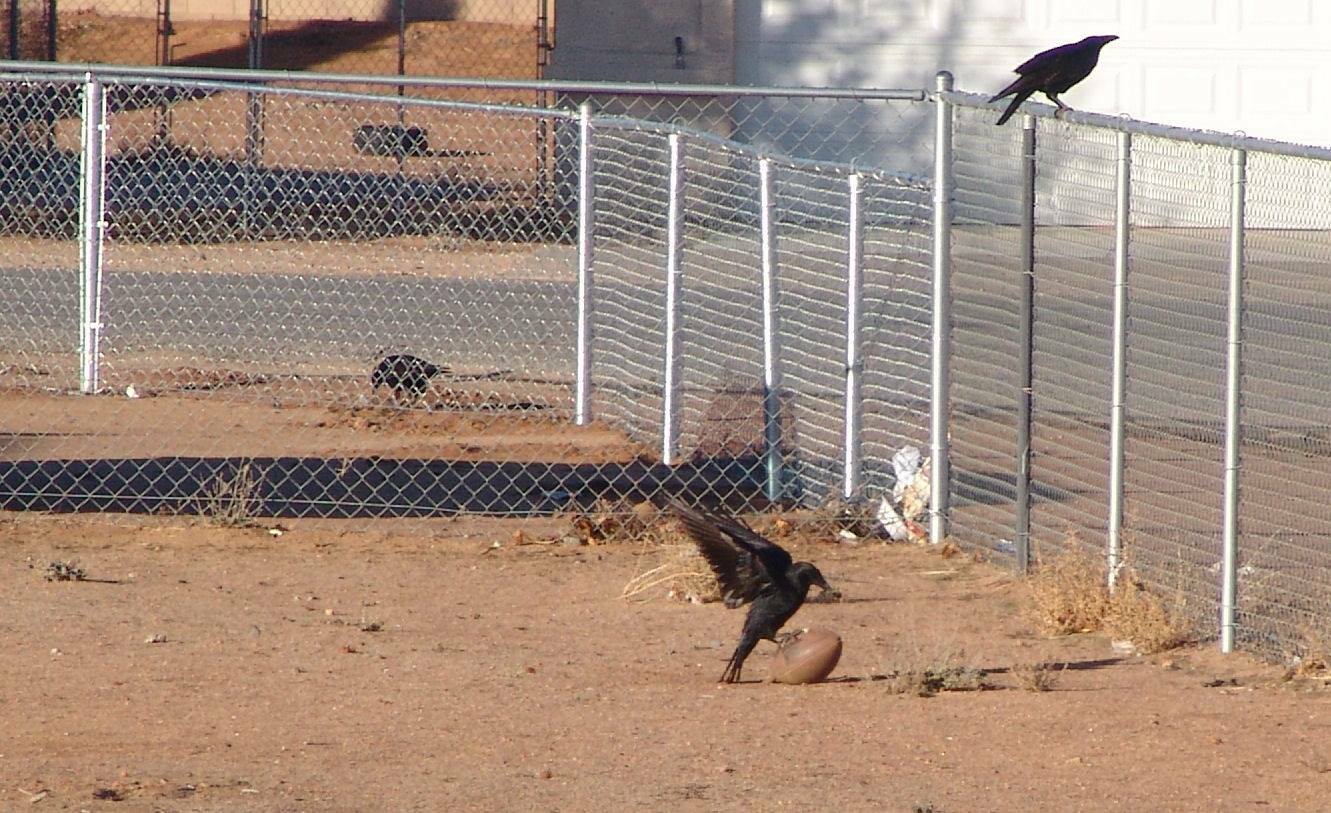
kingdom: Animalia
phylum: Chordata
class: Aves
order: Passeriformes
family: Corvidae
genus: Corvus
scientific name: Corvus corax
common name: Common raven
